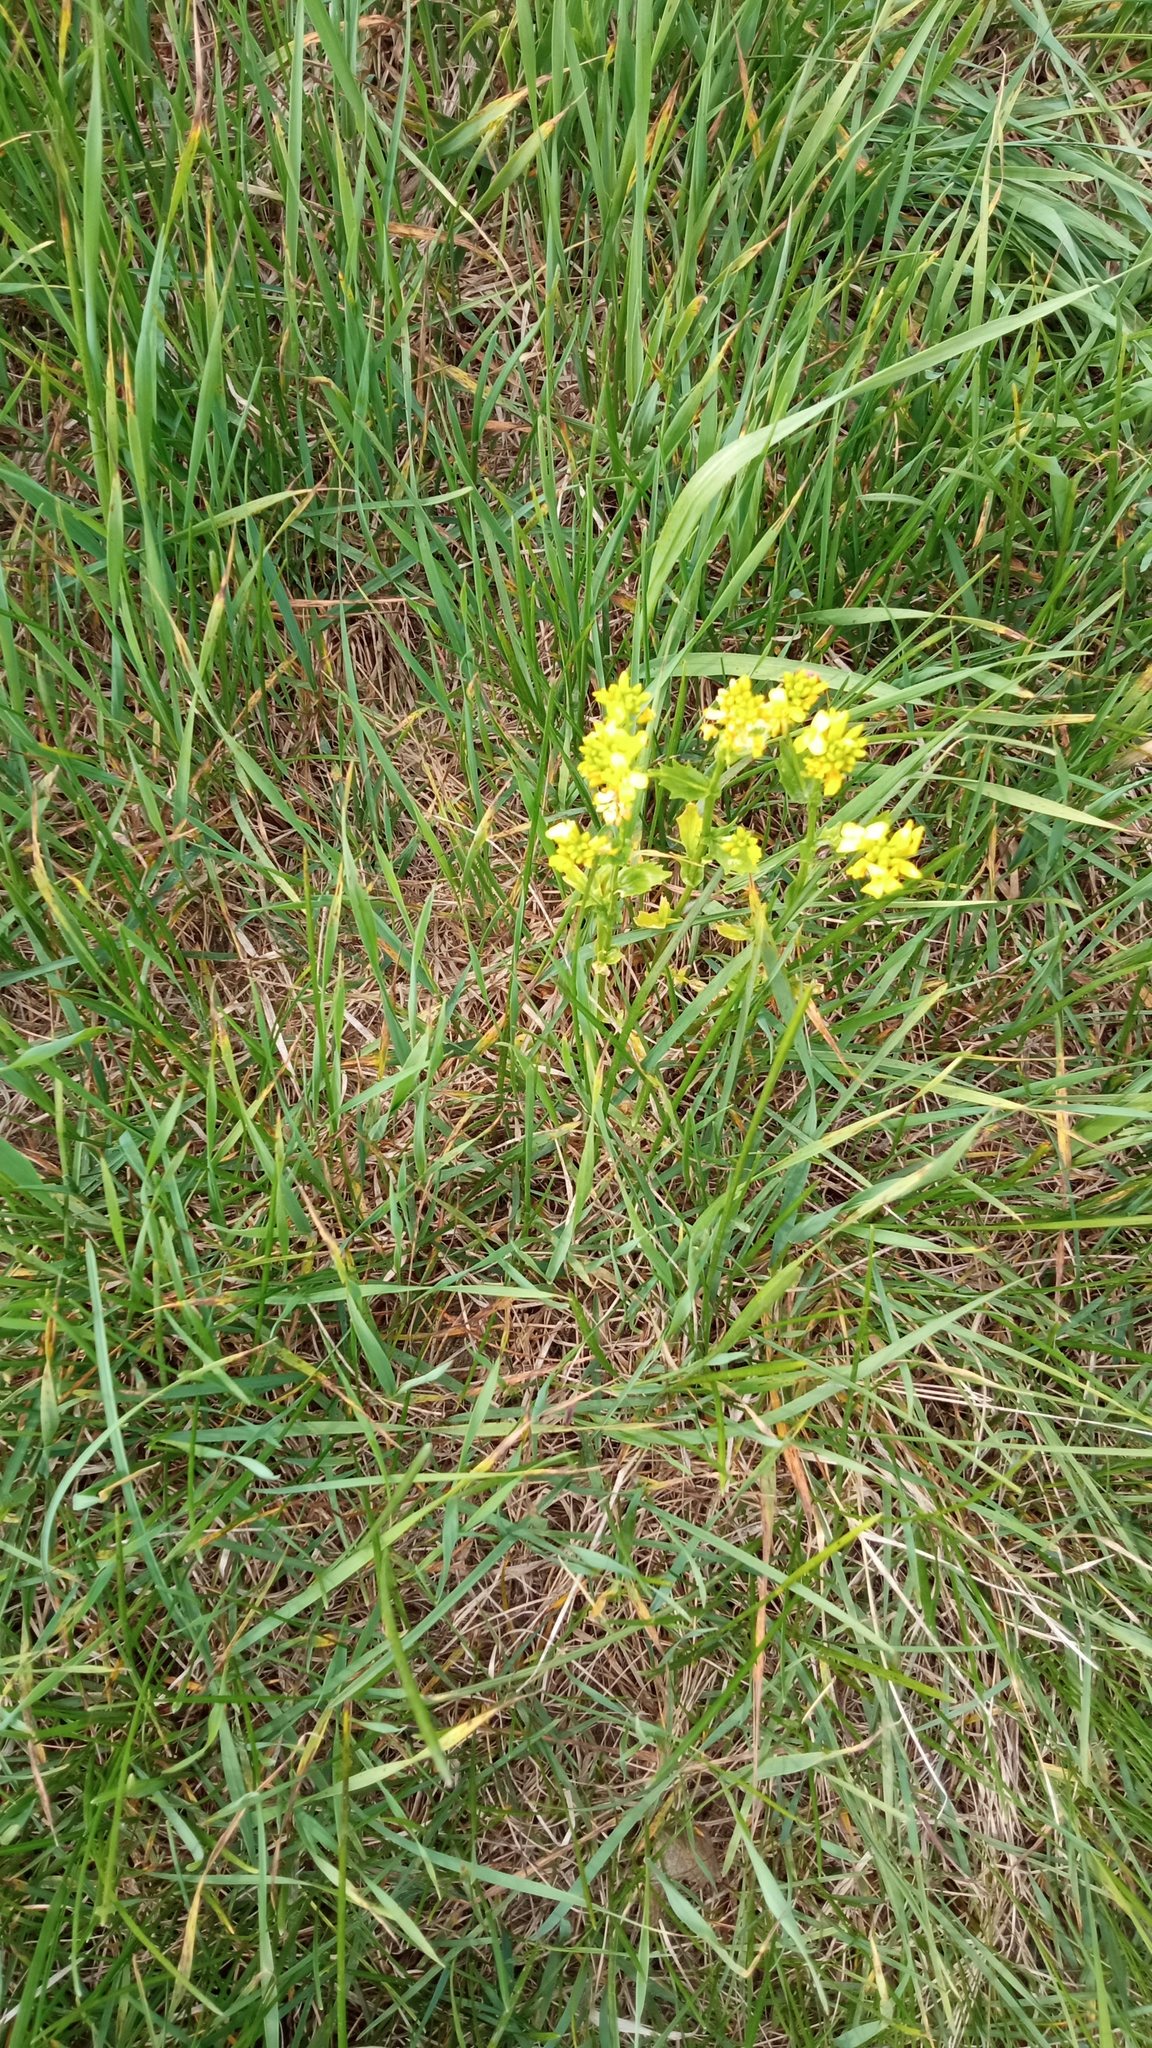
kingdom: Plantae
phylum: Tracheophyta
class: Magnoliopsida
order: Brassicales
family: Brassicaceae
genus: Barbarea
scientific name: Barbarea vulgaris
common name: Cressy-greens
